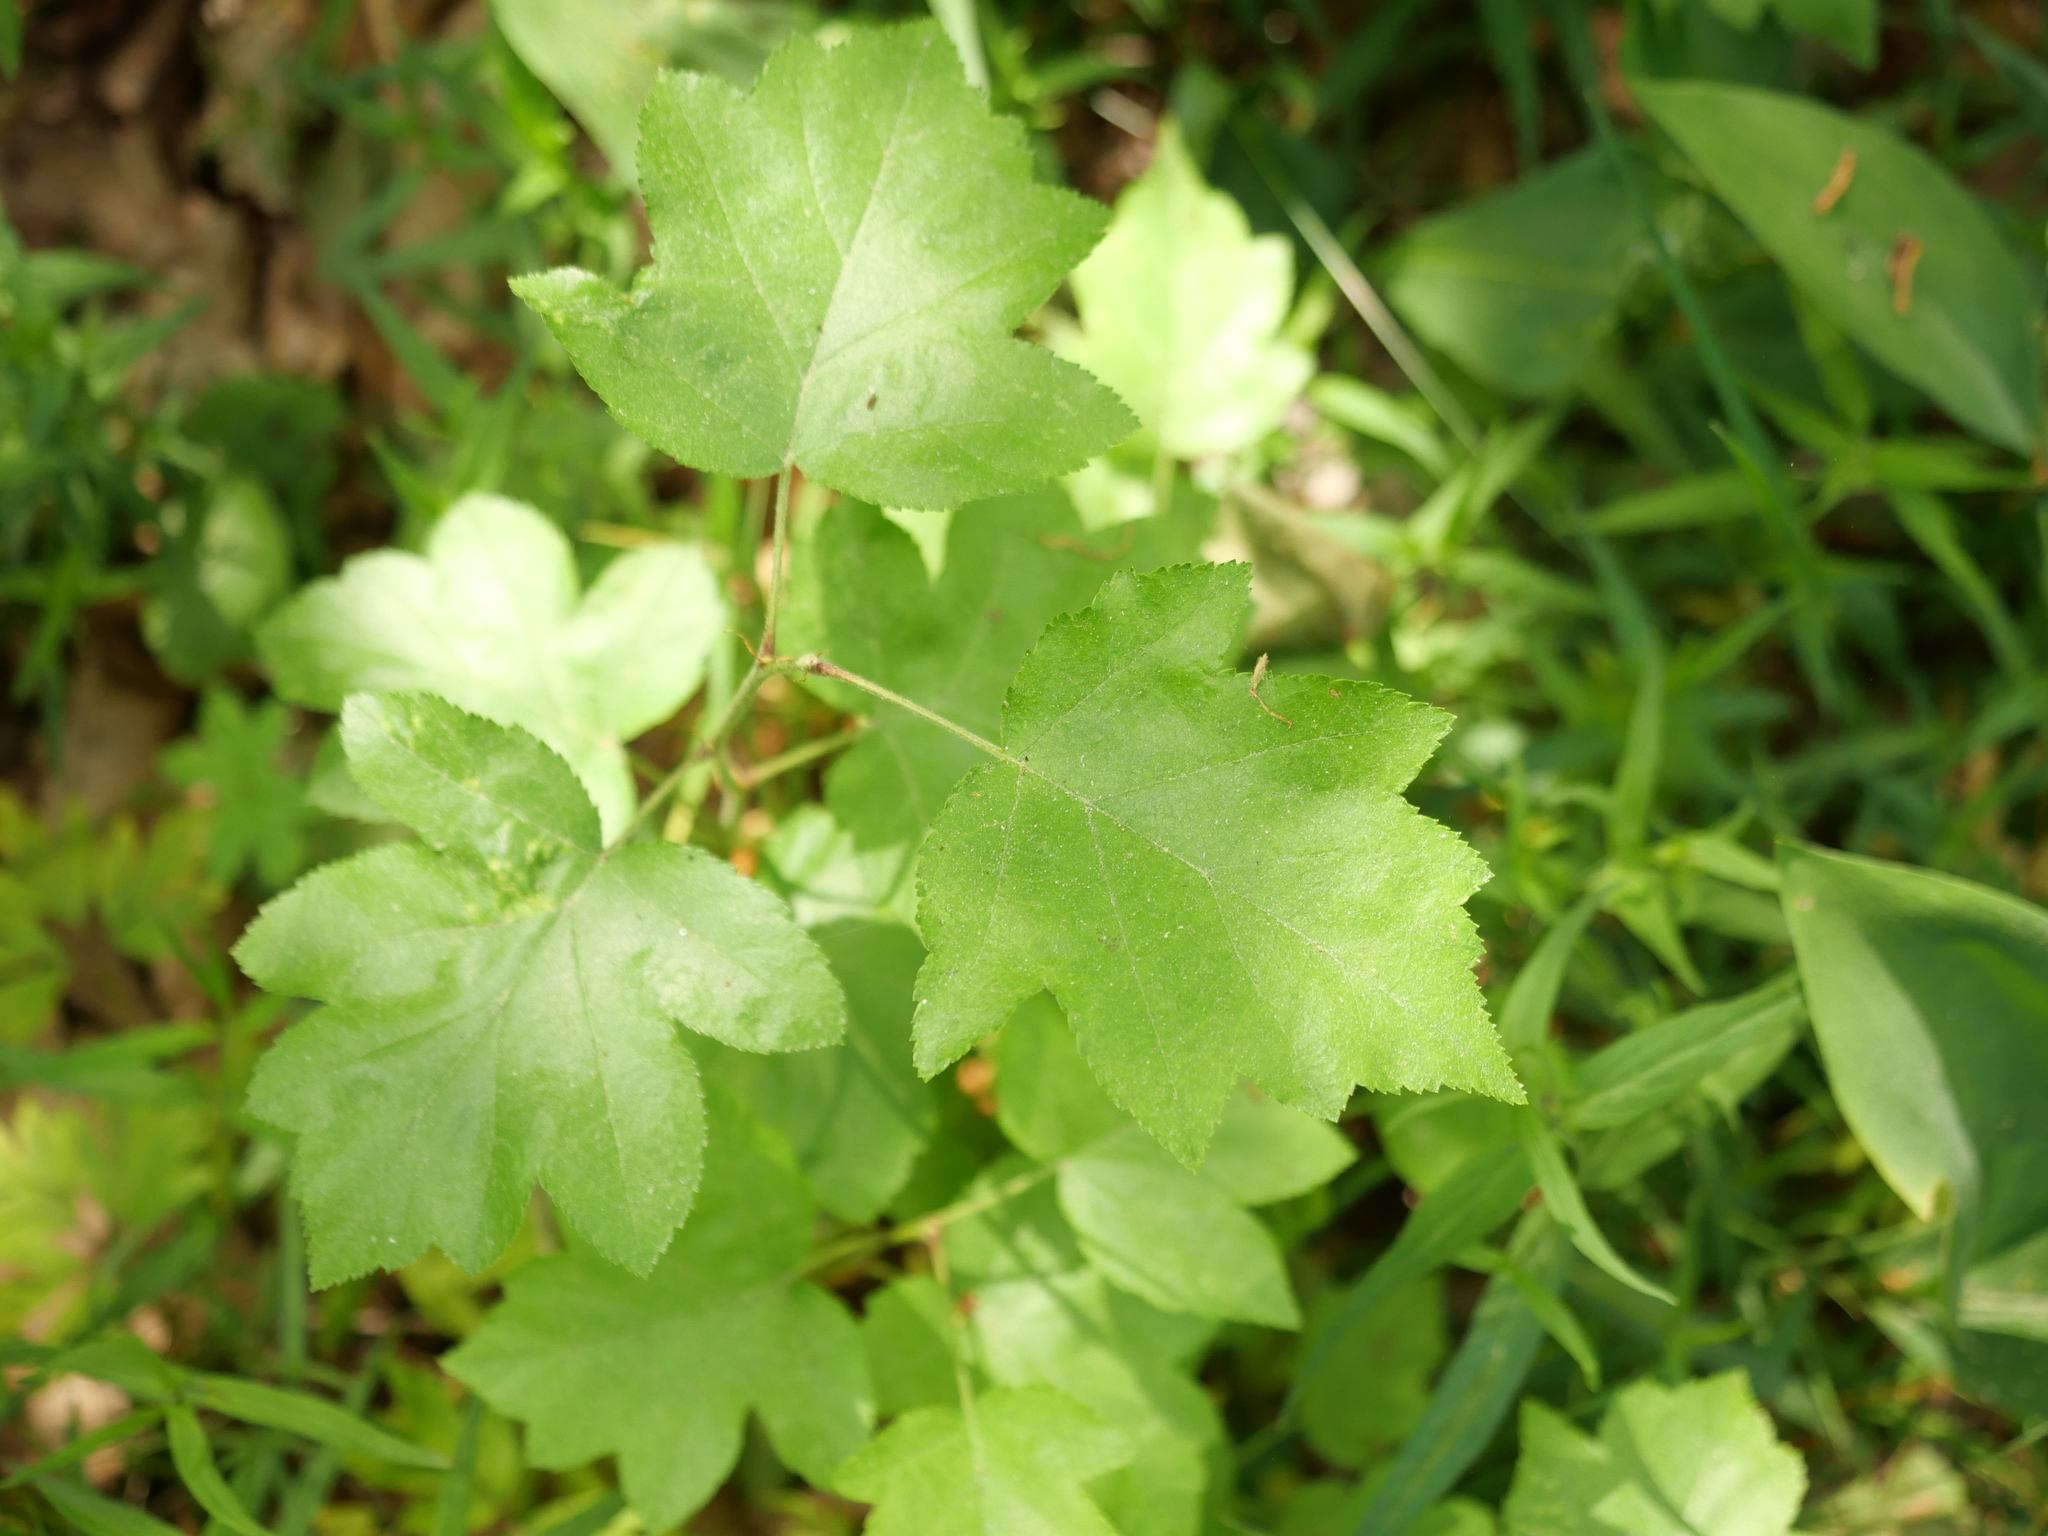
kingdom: Plantae
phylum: Tracheophyta
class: Magnoliopsida
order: Rosales
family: Rosaceae
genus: Torminalis
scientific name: Torminalis glaberrima
